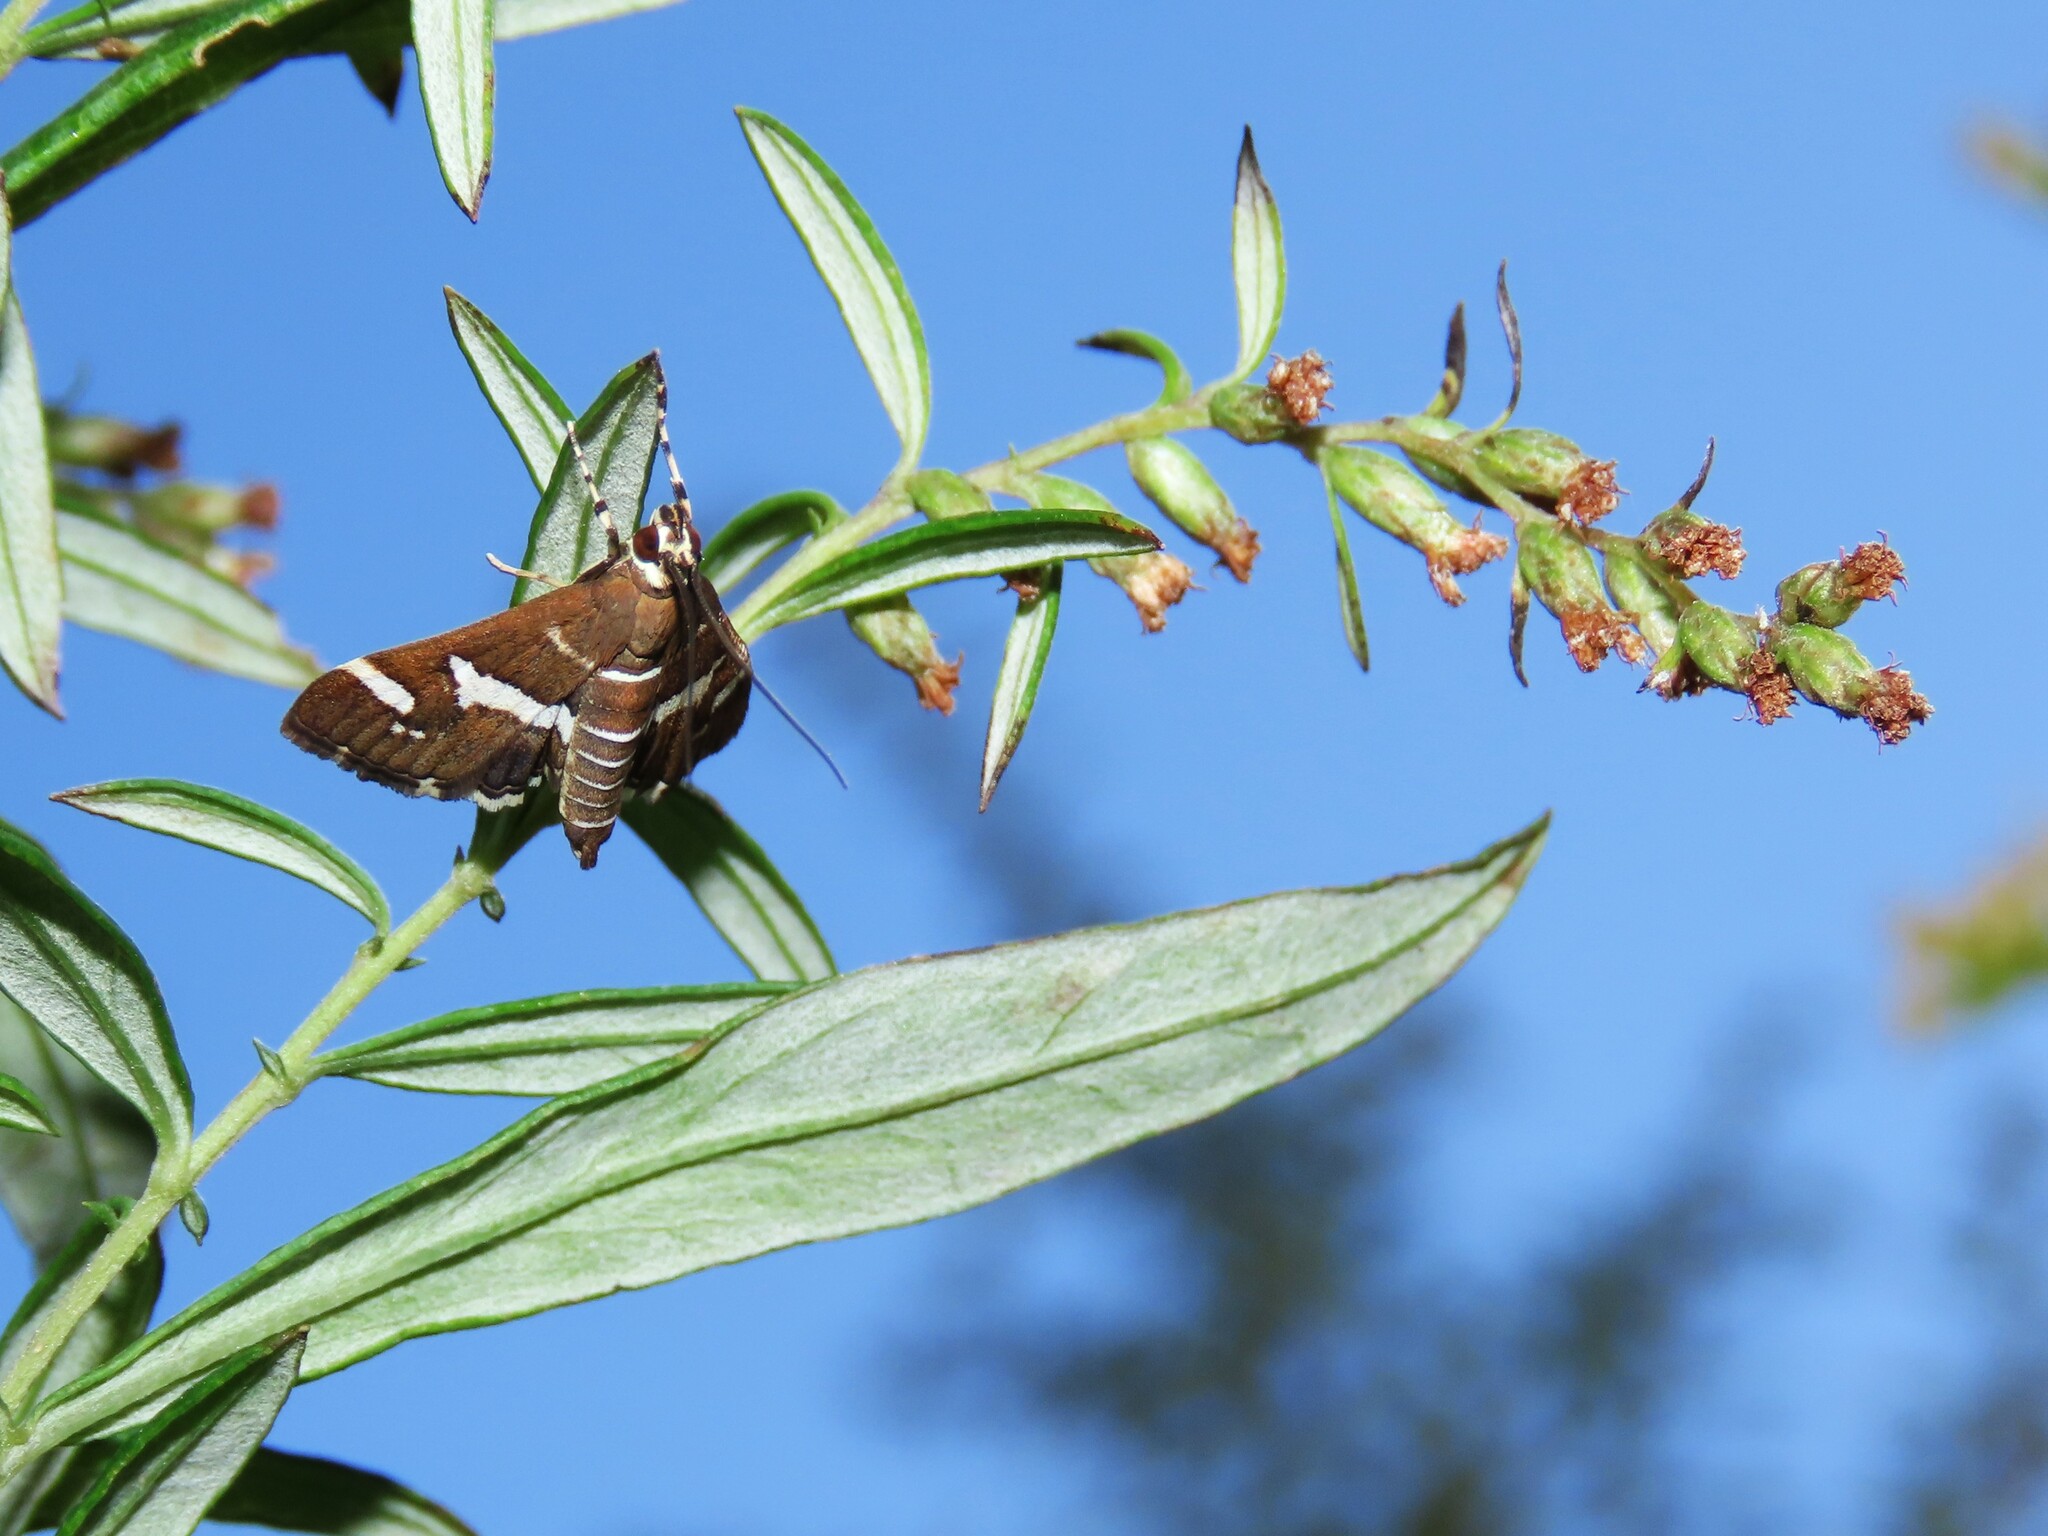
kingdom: Animalia
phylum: Arthropoda
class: Insecta
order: Lepidoptera
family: Crambidae
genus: Spoladea
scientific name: Spoladea recurvalis
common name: Beet webworm moth
